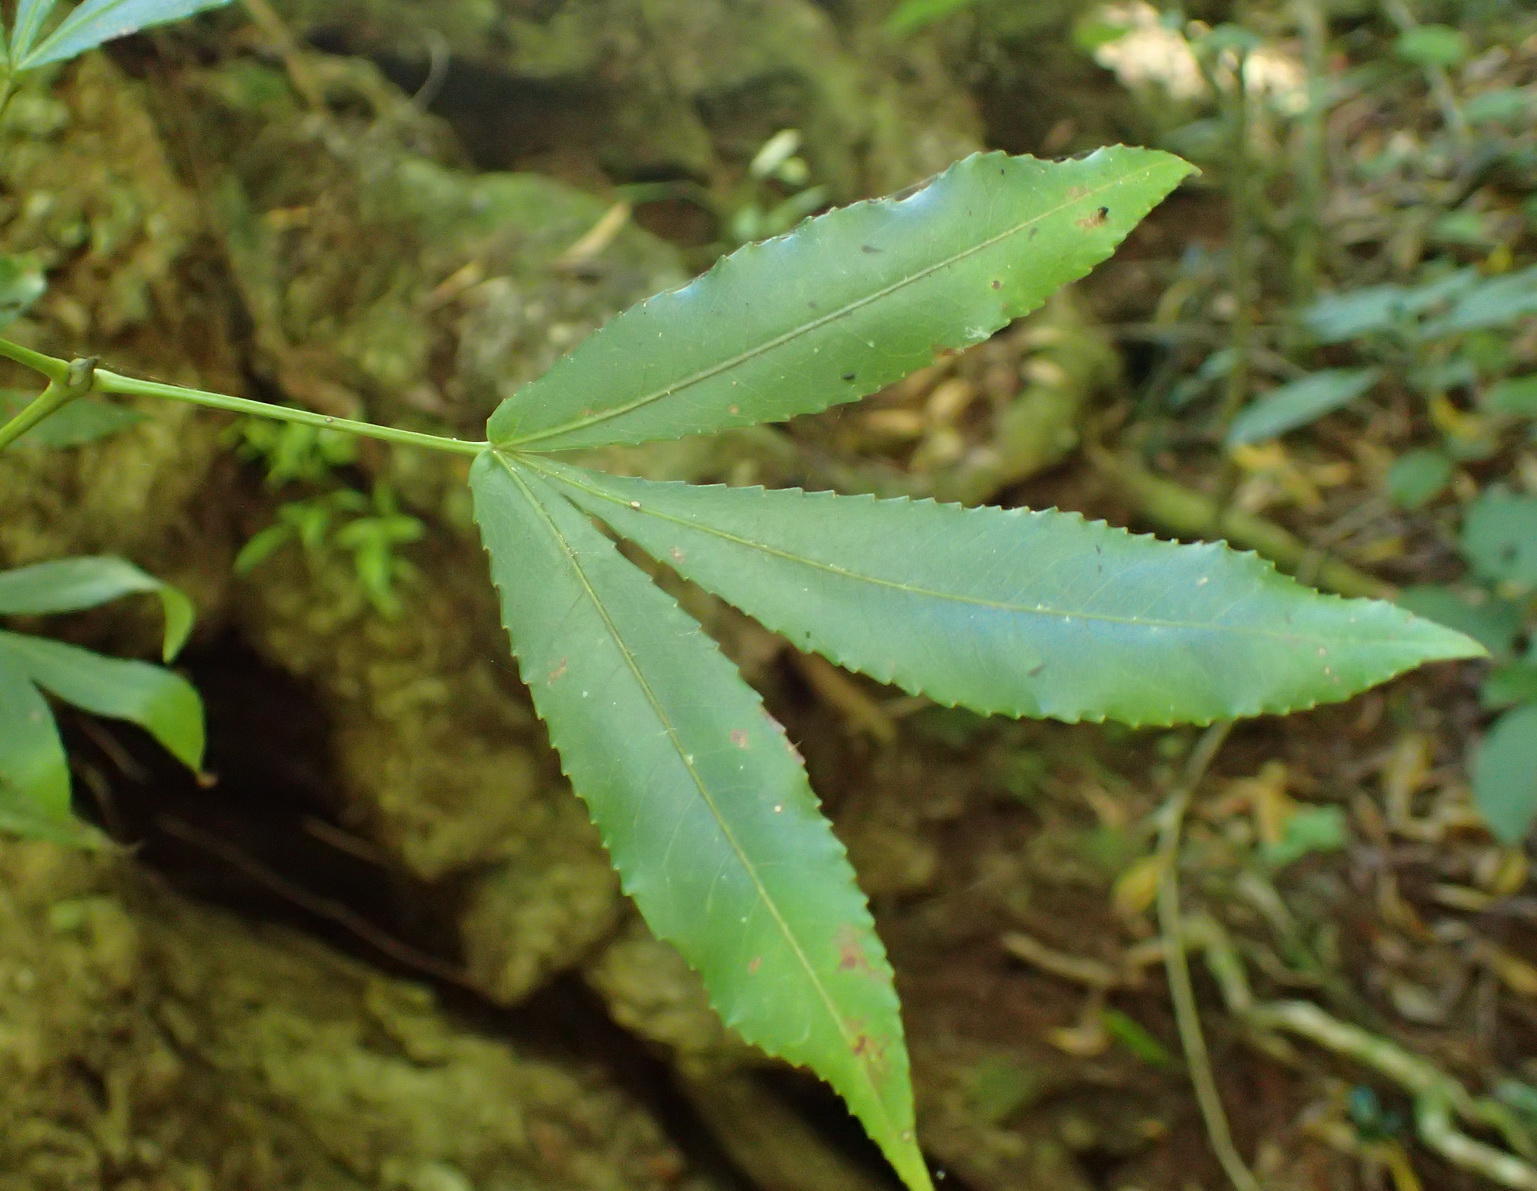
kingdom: Plantae
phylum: Tracheophyta
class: Magnoliopsida
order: Oxalidales
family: Cunoniaceae
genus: Platylophus
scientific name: Platylophus trifoliatus
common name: White alder
